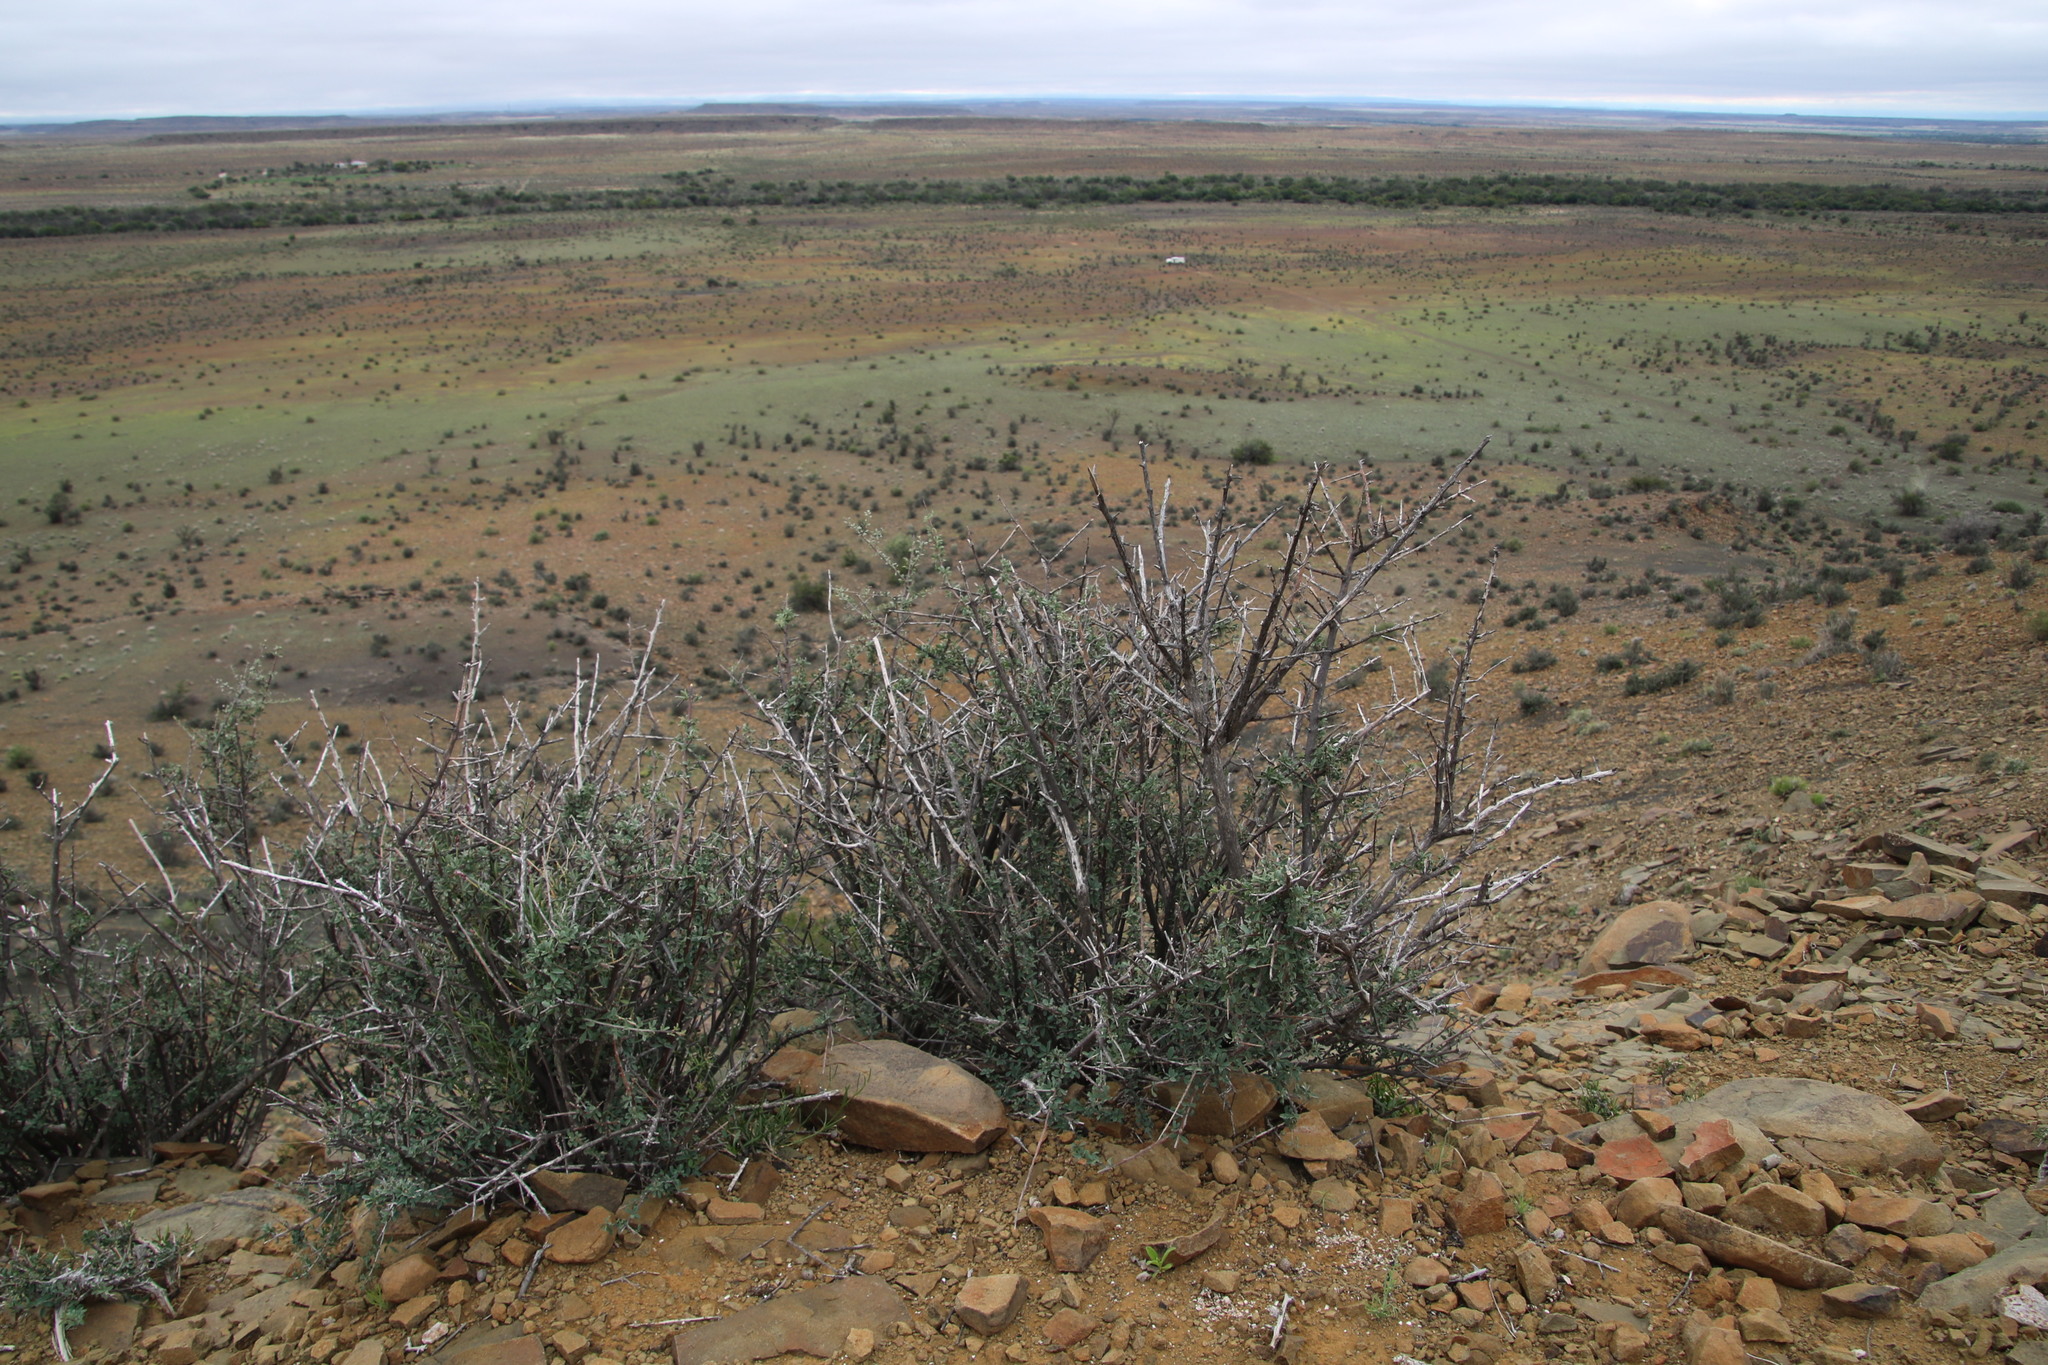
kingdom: Plantae
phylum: Tracheophyta
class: Magnoliopsida
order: Lamiales
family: Bignoniaceae
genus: Rhigozum
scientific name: Rhigozum obovatum
